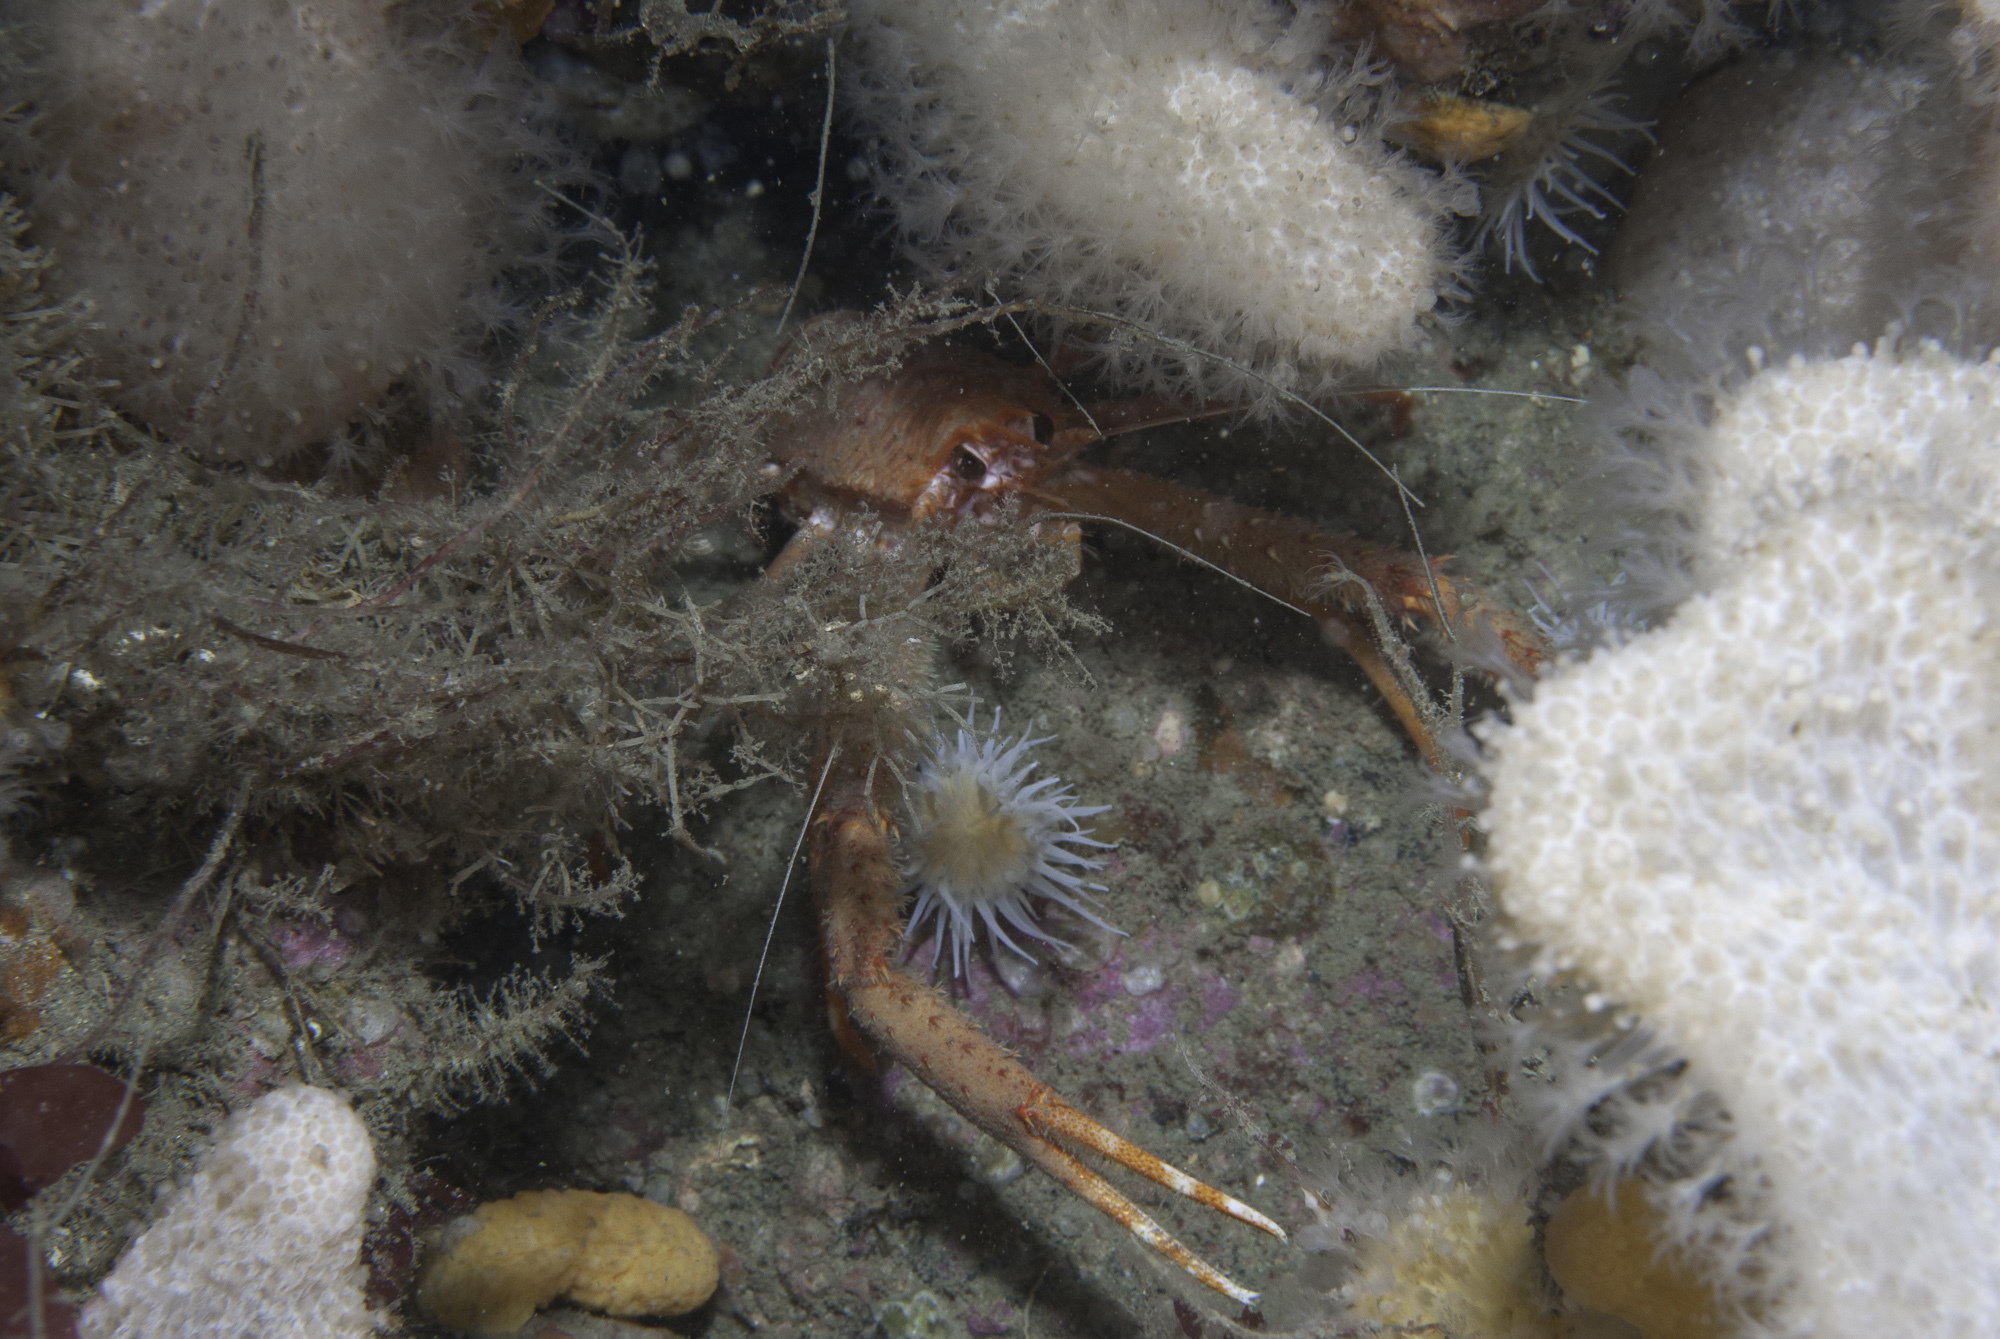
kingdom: Animalia
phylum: Arthropoda
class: Malacostraca
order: Decapoda
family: Munididae
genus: Munida
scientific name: Munida rugosa
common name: Rugose squat lobster
